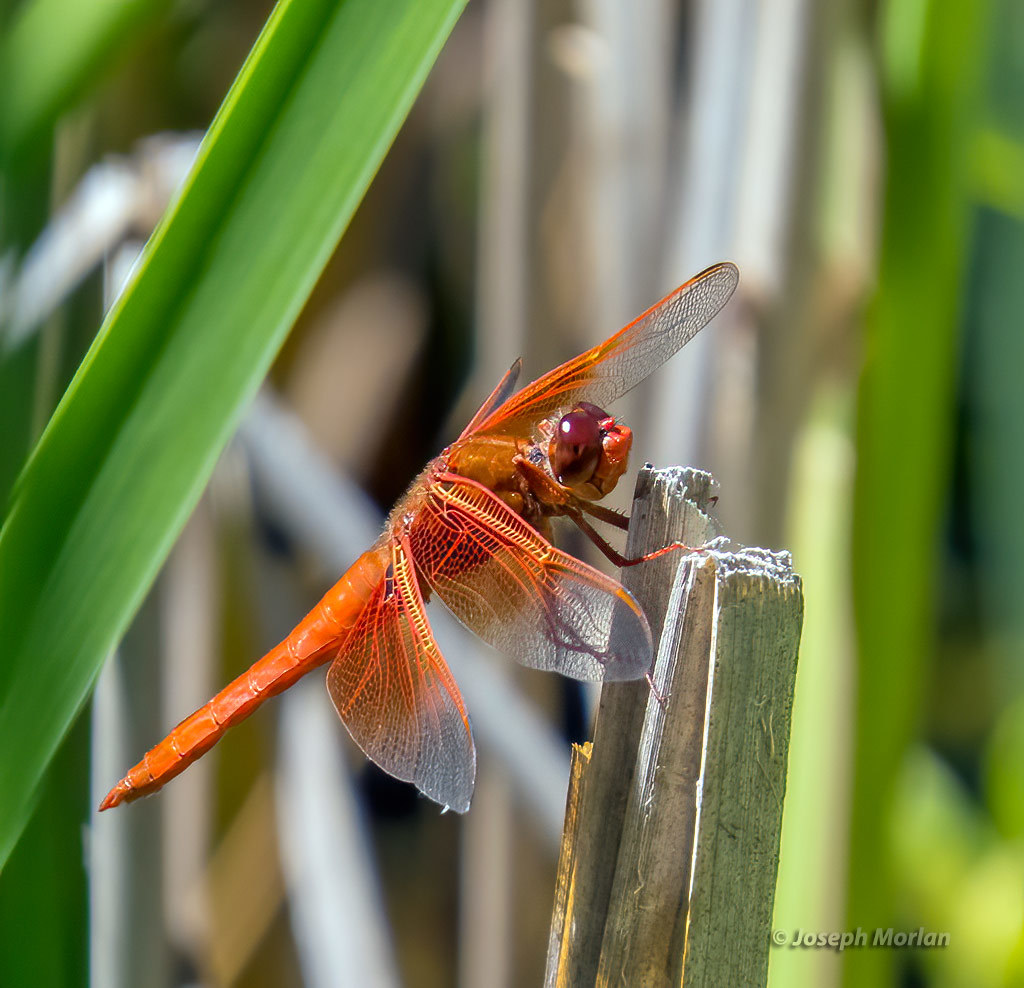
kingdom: Animalia
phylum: Arthropoda
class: Insecta
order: Odonata
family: Libellulidae
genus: Libellula
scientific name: Libellula saturata
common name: Flame skimmer
